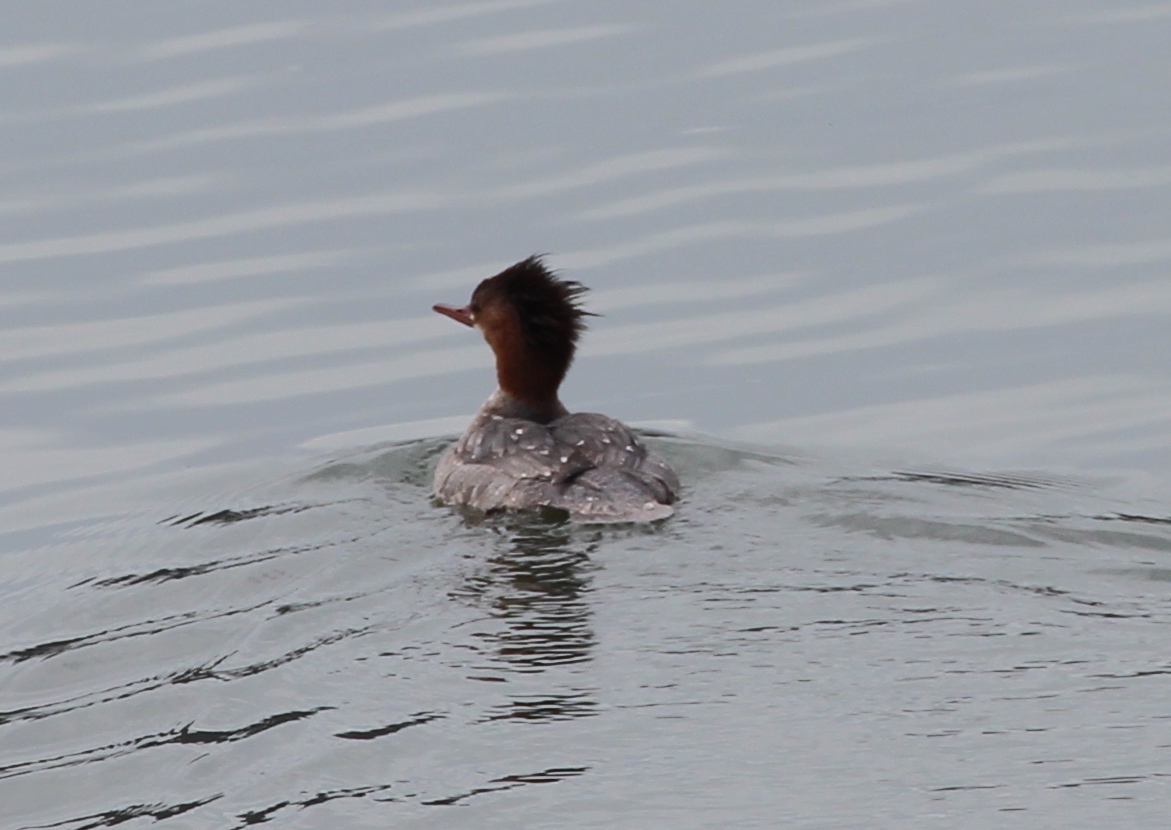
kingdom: Animalia
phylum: Chordata
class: Aves
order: Anseriformes
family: Anatidae
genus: Mergus
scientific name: Mergus merganser
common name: Common merganser
